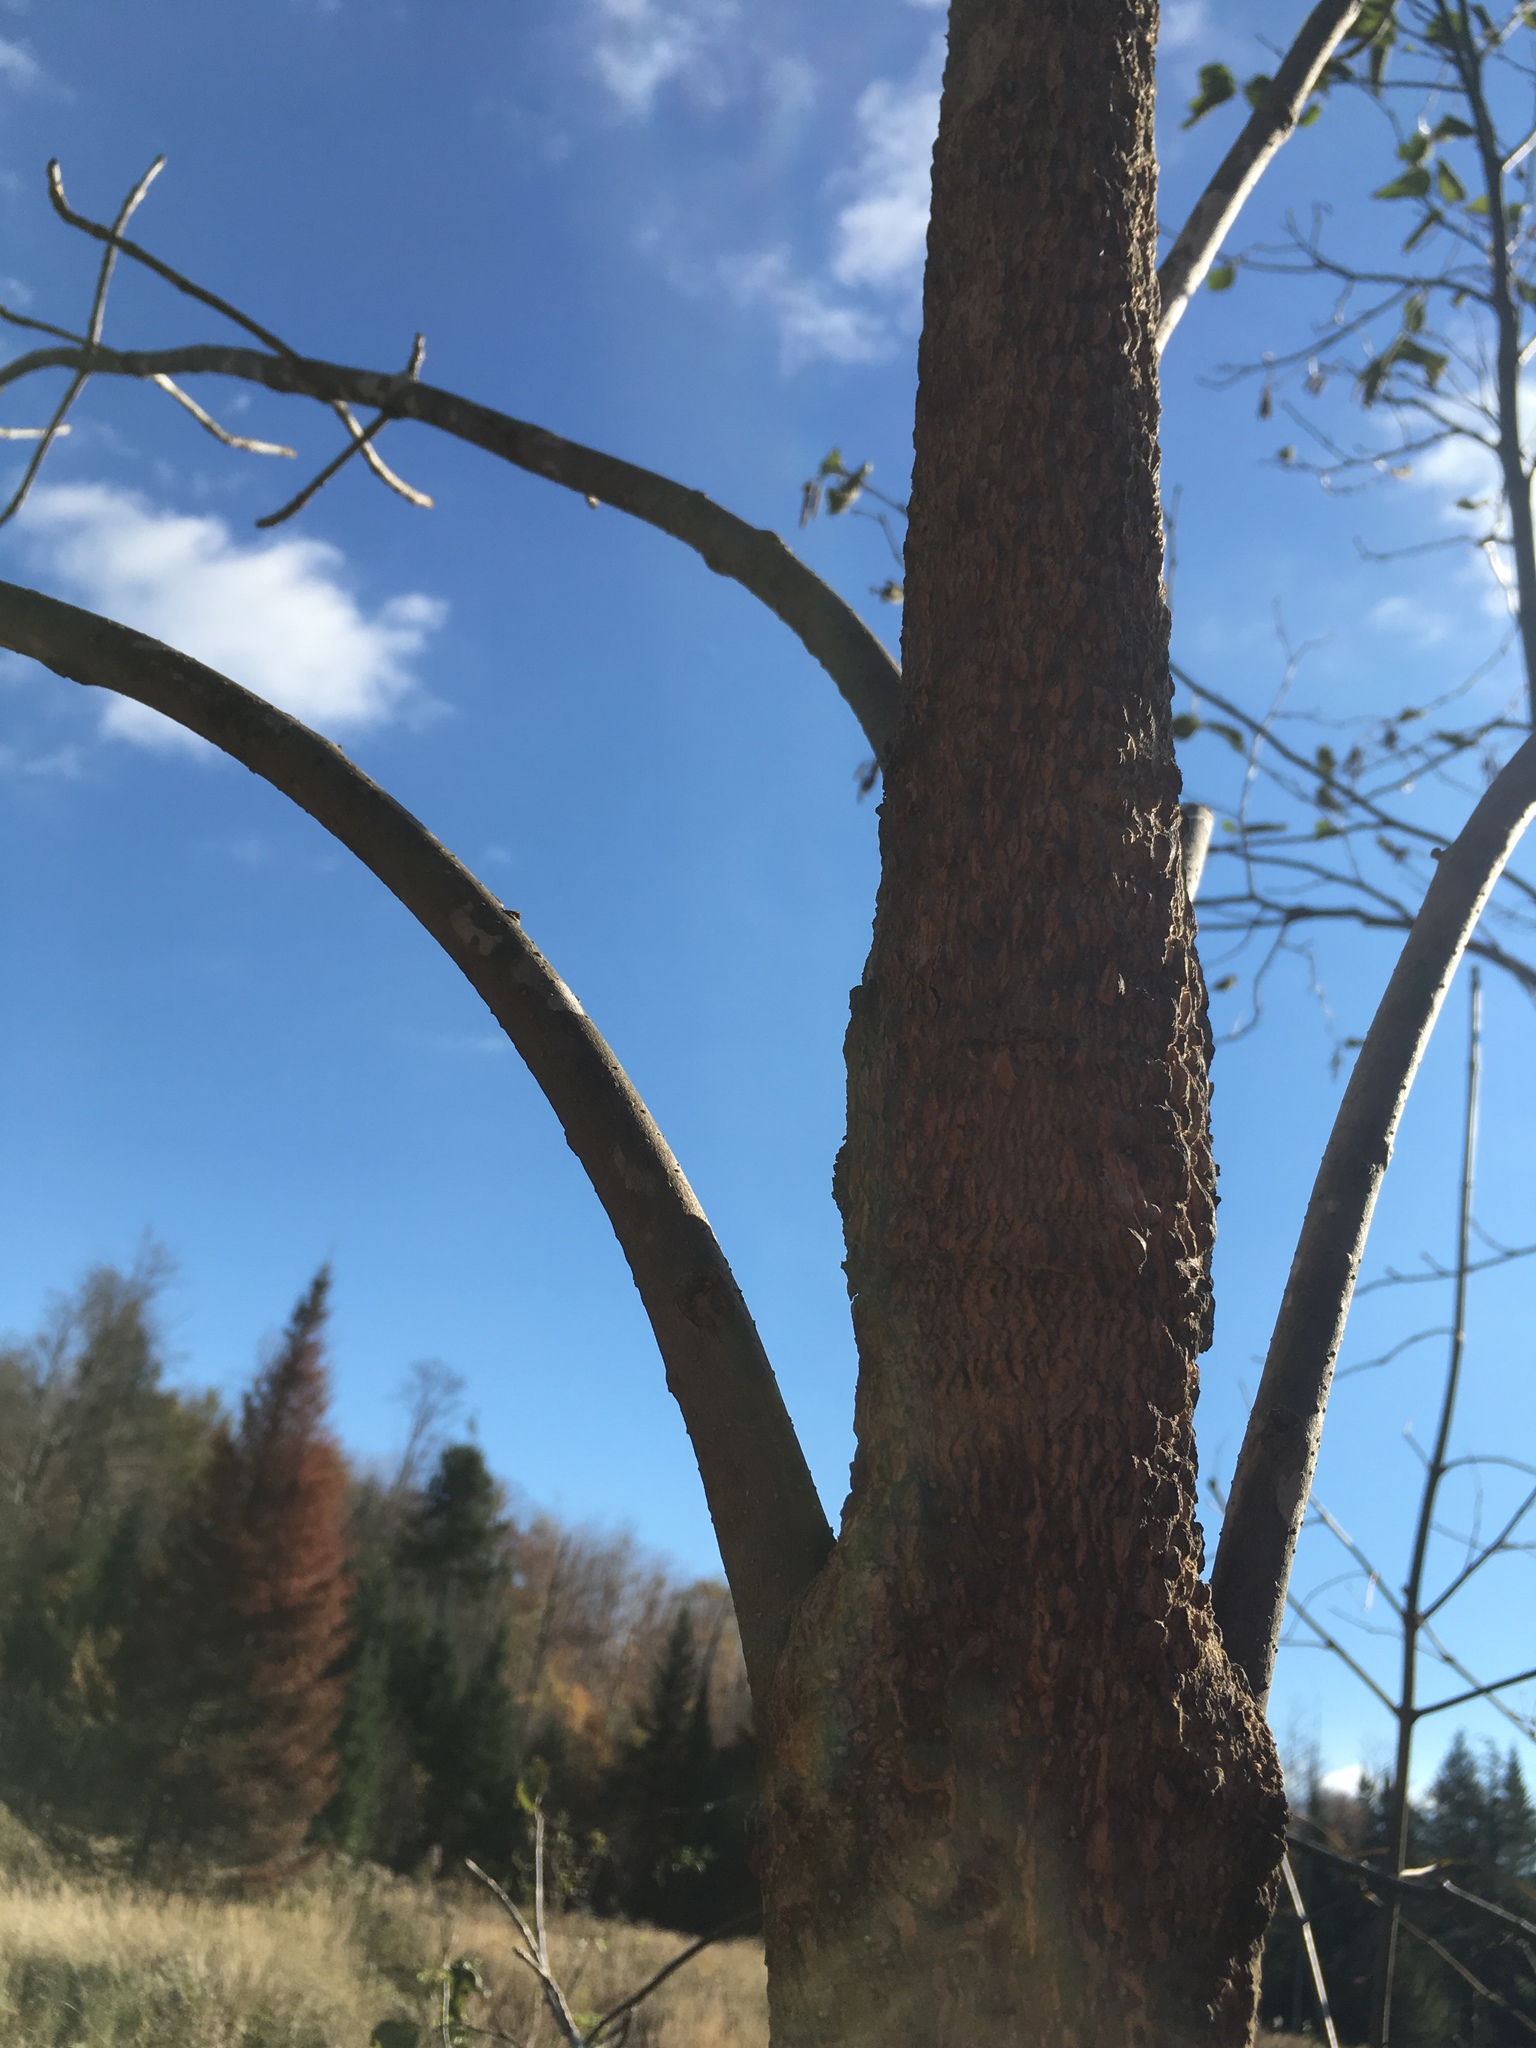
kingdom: Plantae
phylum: Tracheophyta
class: Magnoliopsida
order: Lamiales
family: Oleaceae
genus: Fraxinus
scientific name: Fraxinus nigra
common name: Black ash
